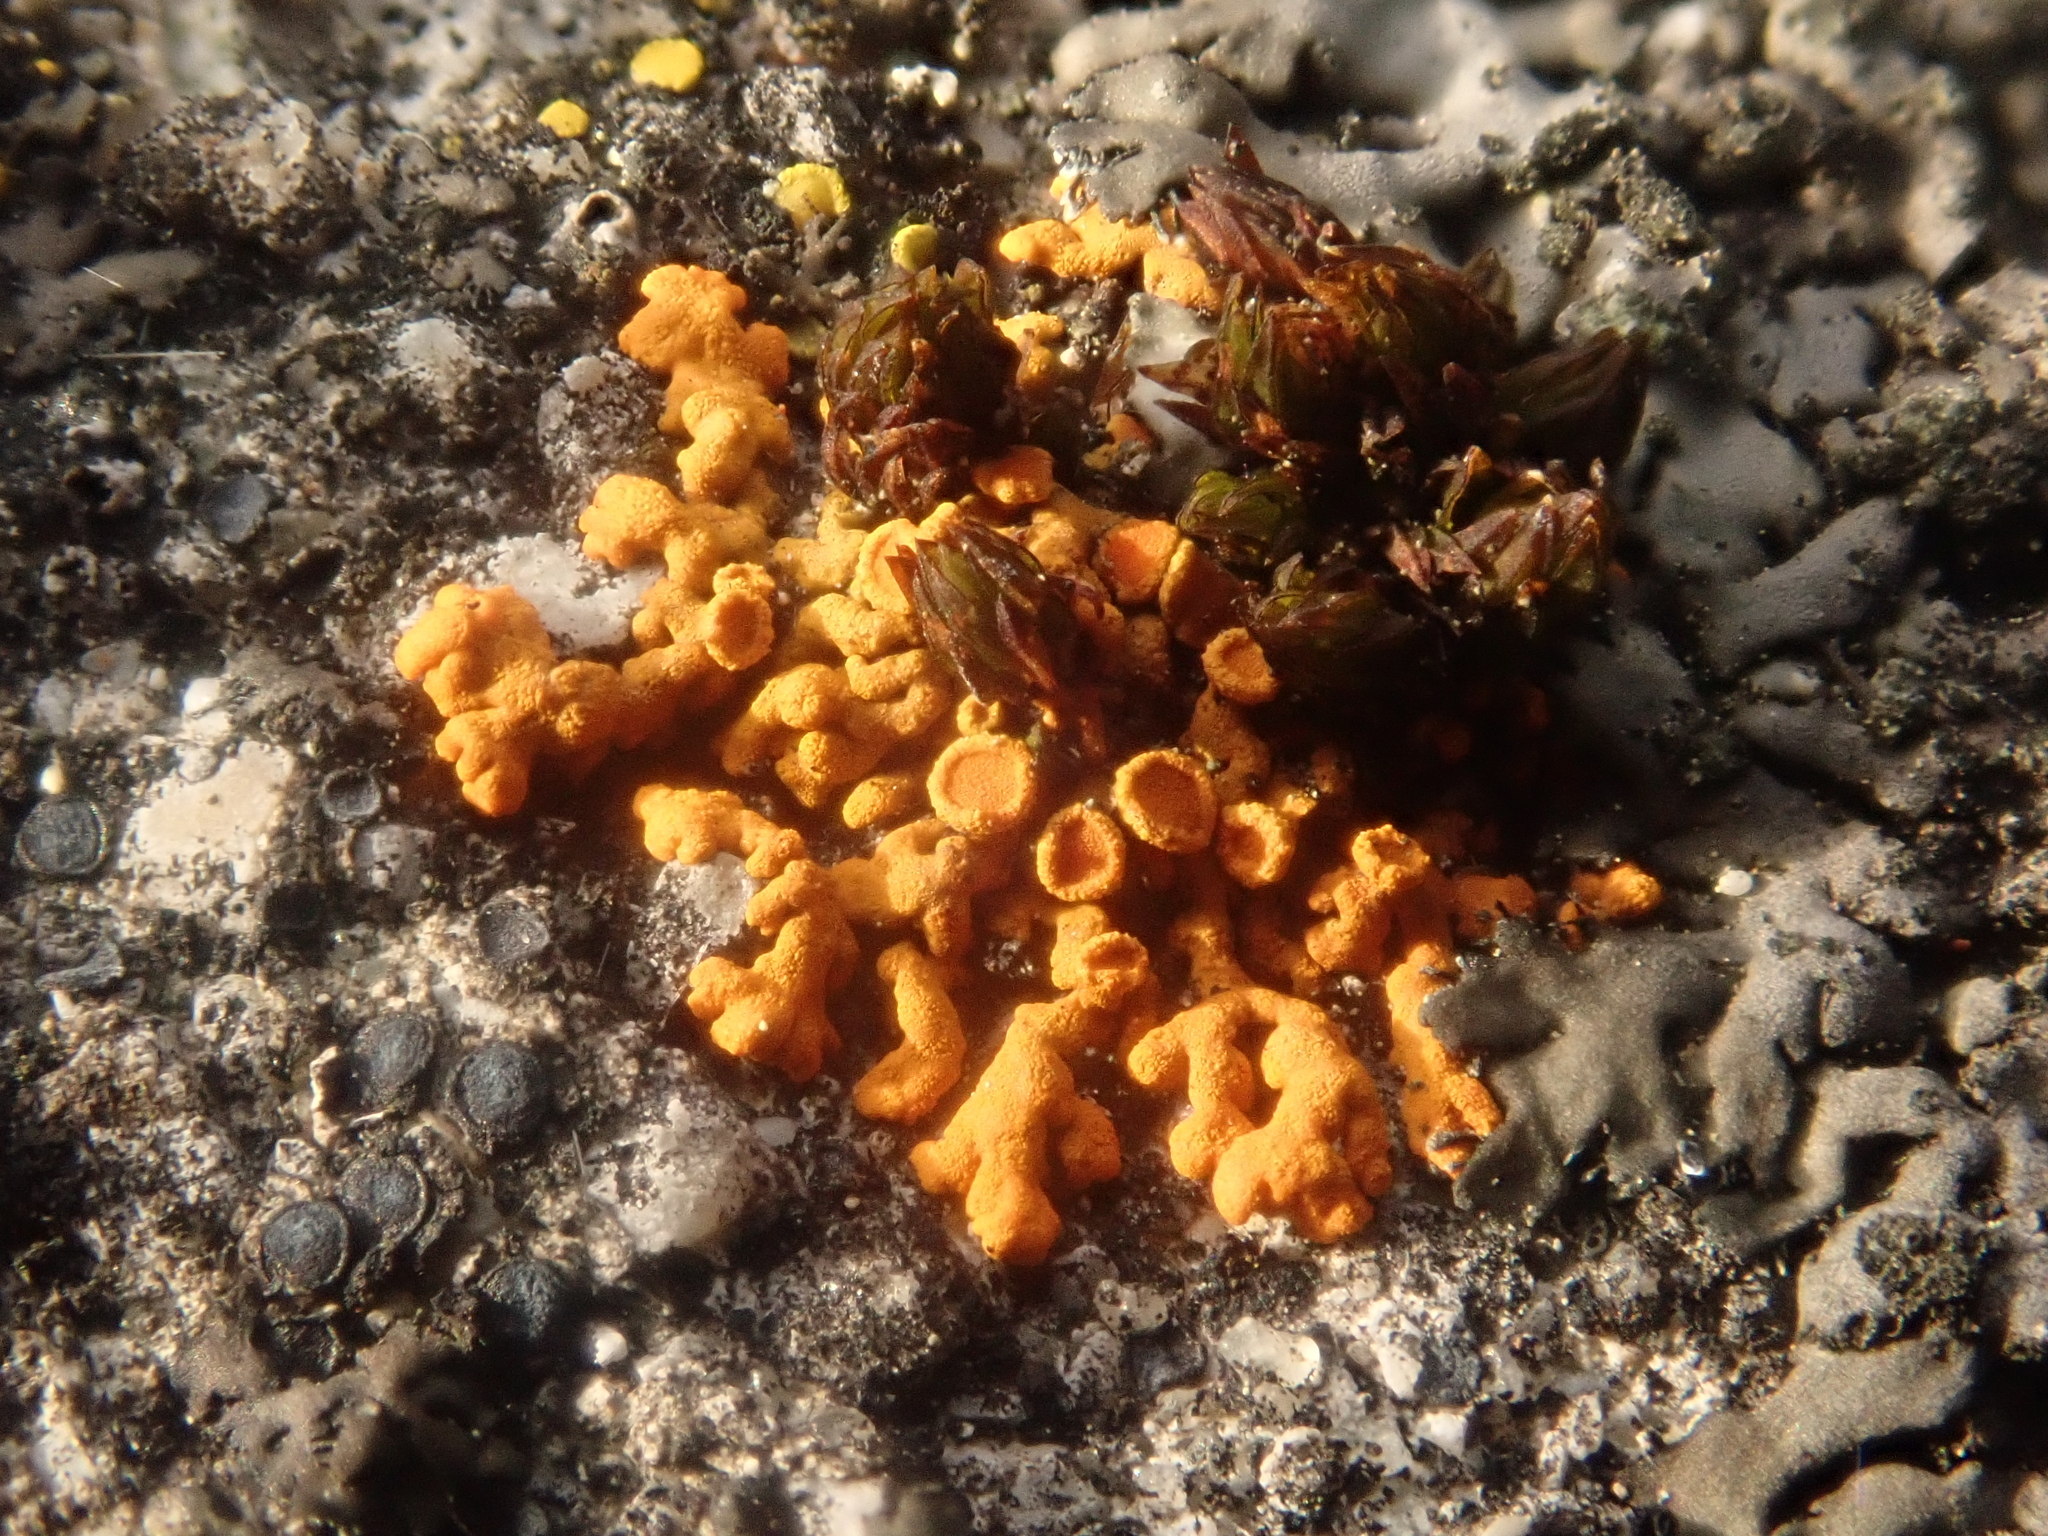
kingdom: Fungi
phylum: Ascomycota
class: Lecanoromycetes
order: Teloschistales
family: Teloschistaceae
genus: Xanthoria
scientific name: Xanthoria elegans
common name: Elegant sunburst lichen
